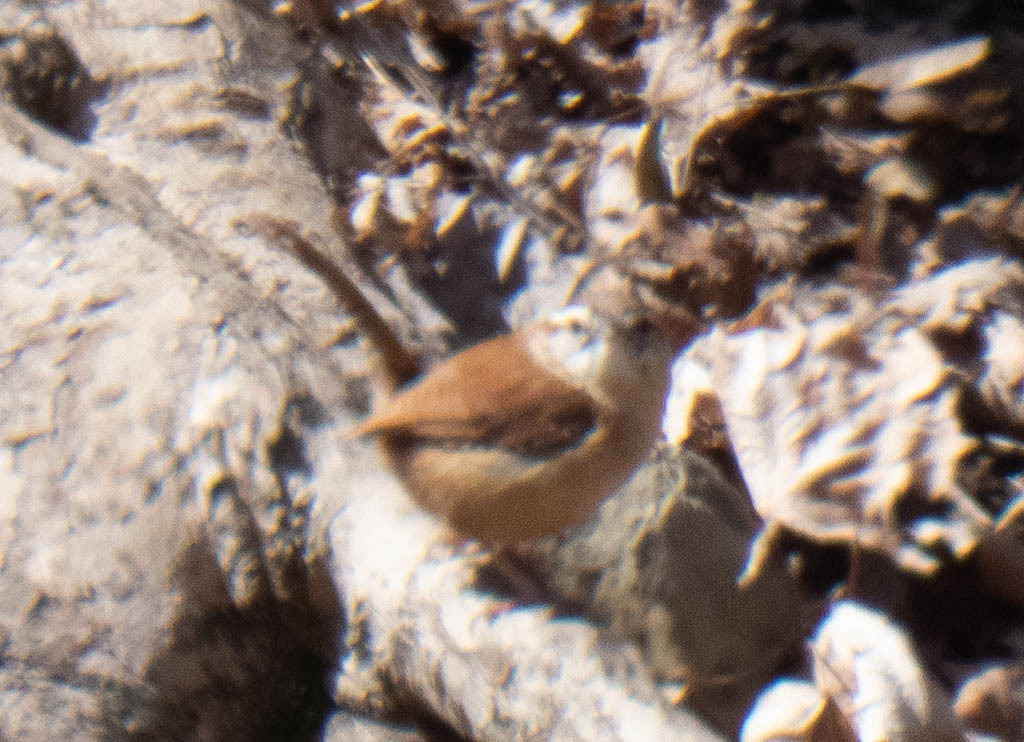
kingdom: Animalia
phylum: Chordata
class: Aves
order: Passeriformes
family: Troglodytidae
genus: Thryothorus
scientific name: Thryothorus ludovicianus
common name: Carolina wren
